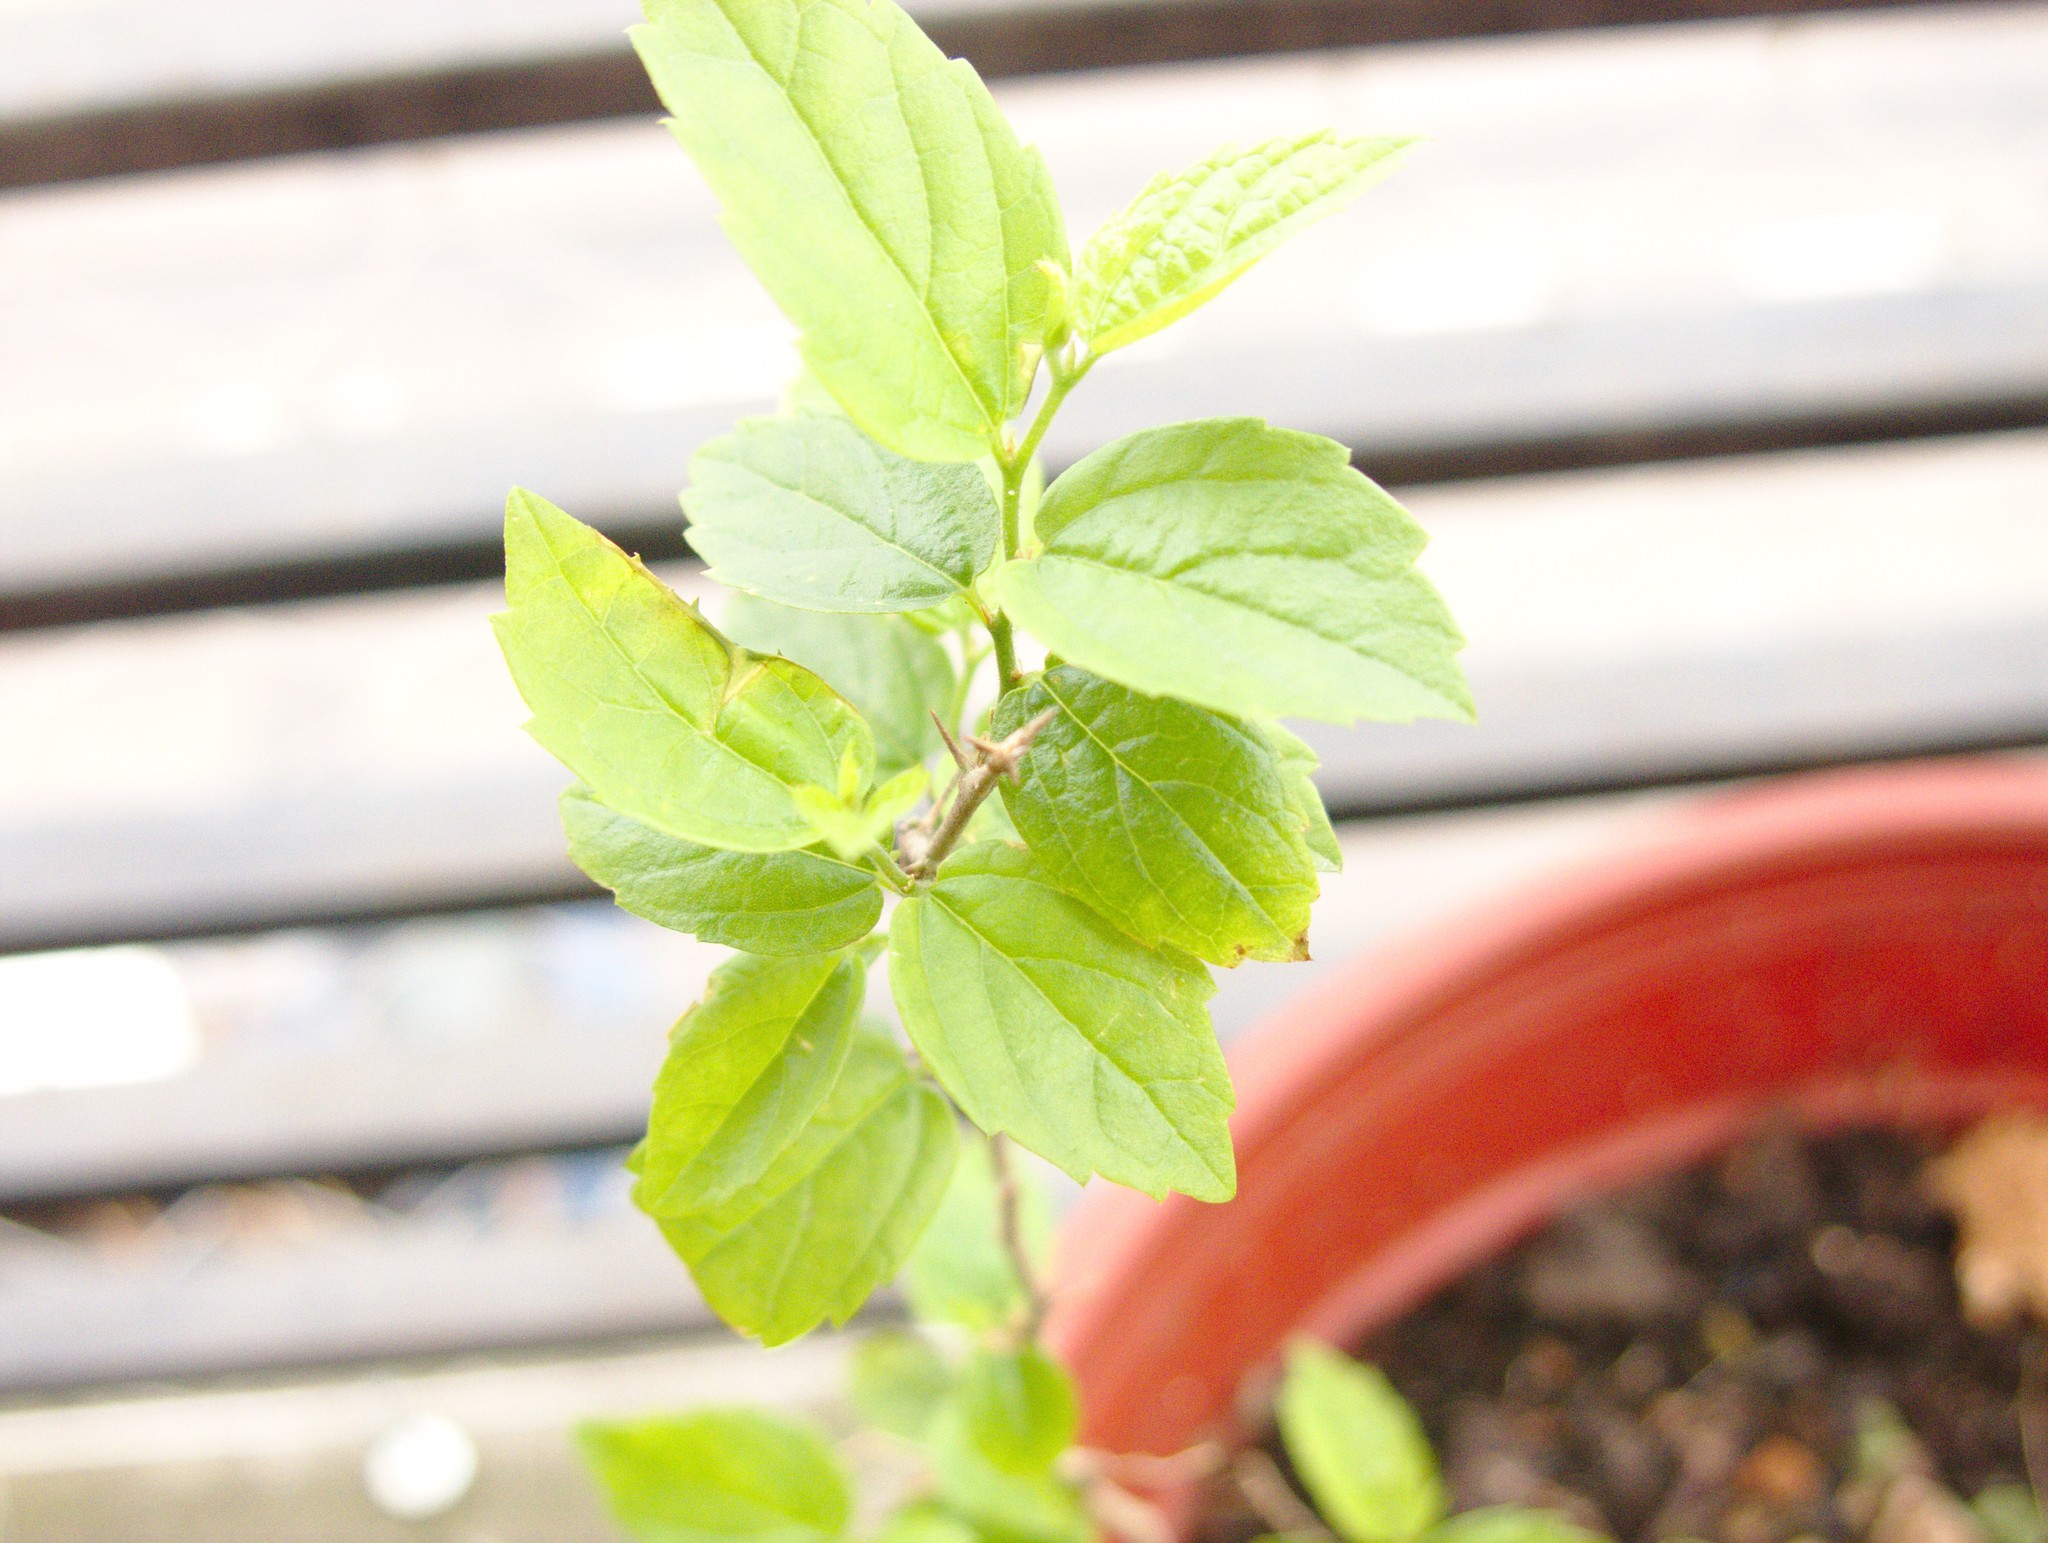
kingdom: Plantae
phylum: Tracheophyta
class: Magnoliopsida
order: Rosales
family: Cannabaceae
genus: Celtis
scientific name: Celtis tala
